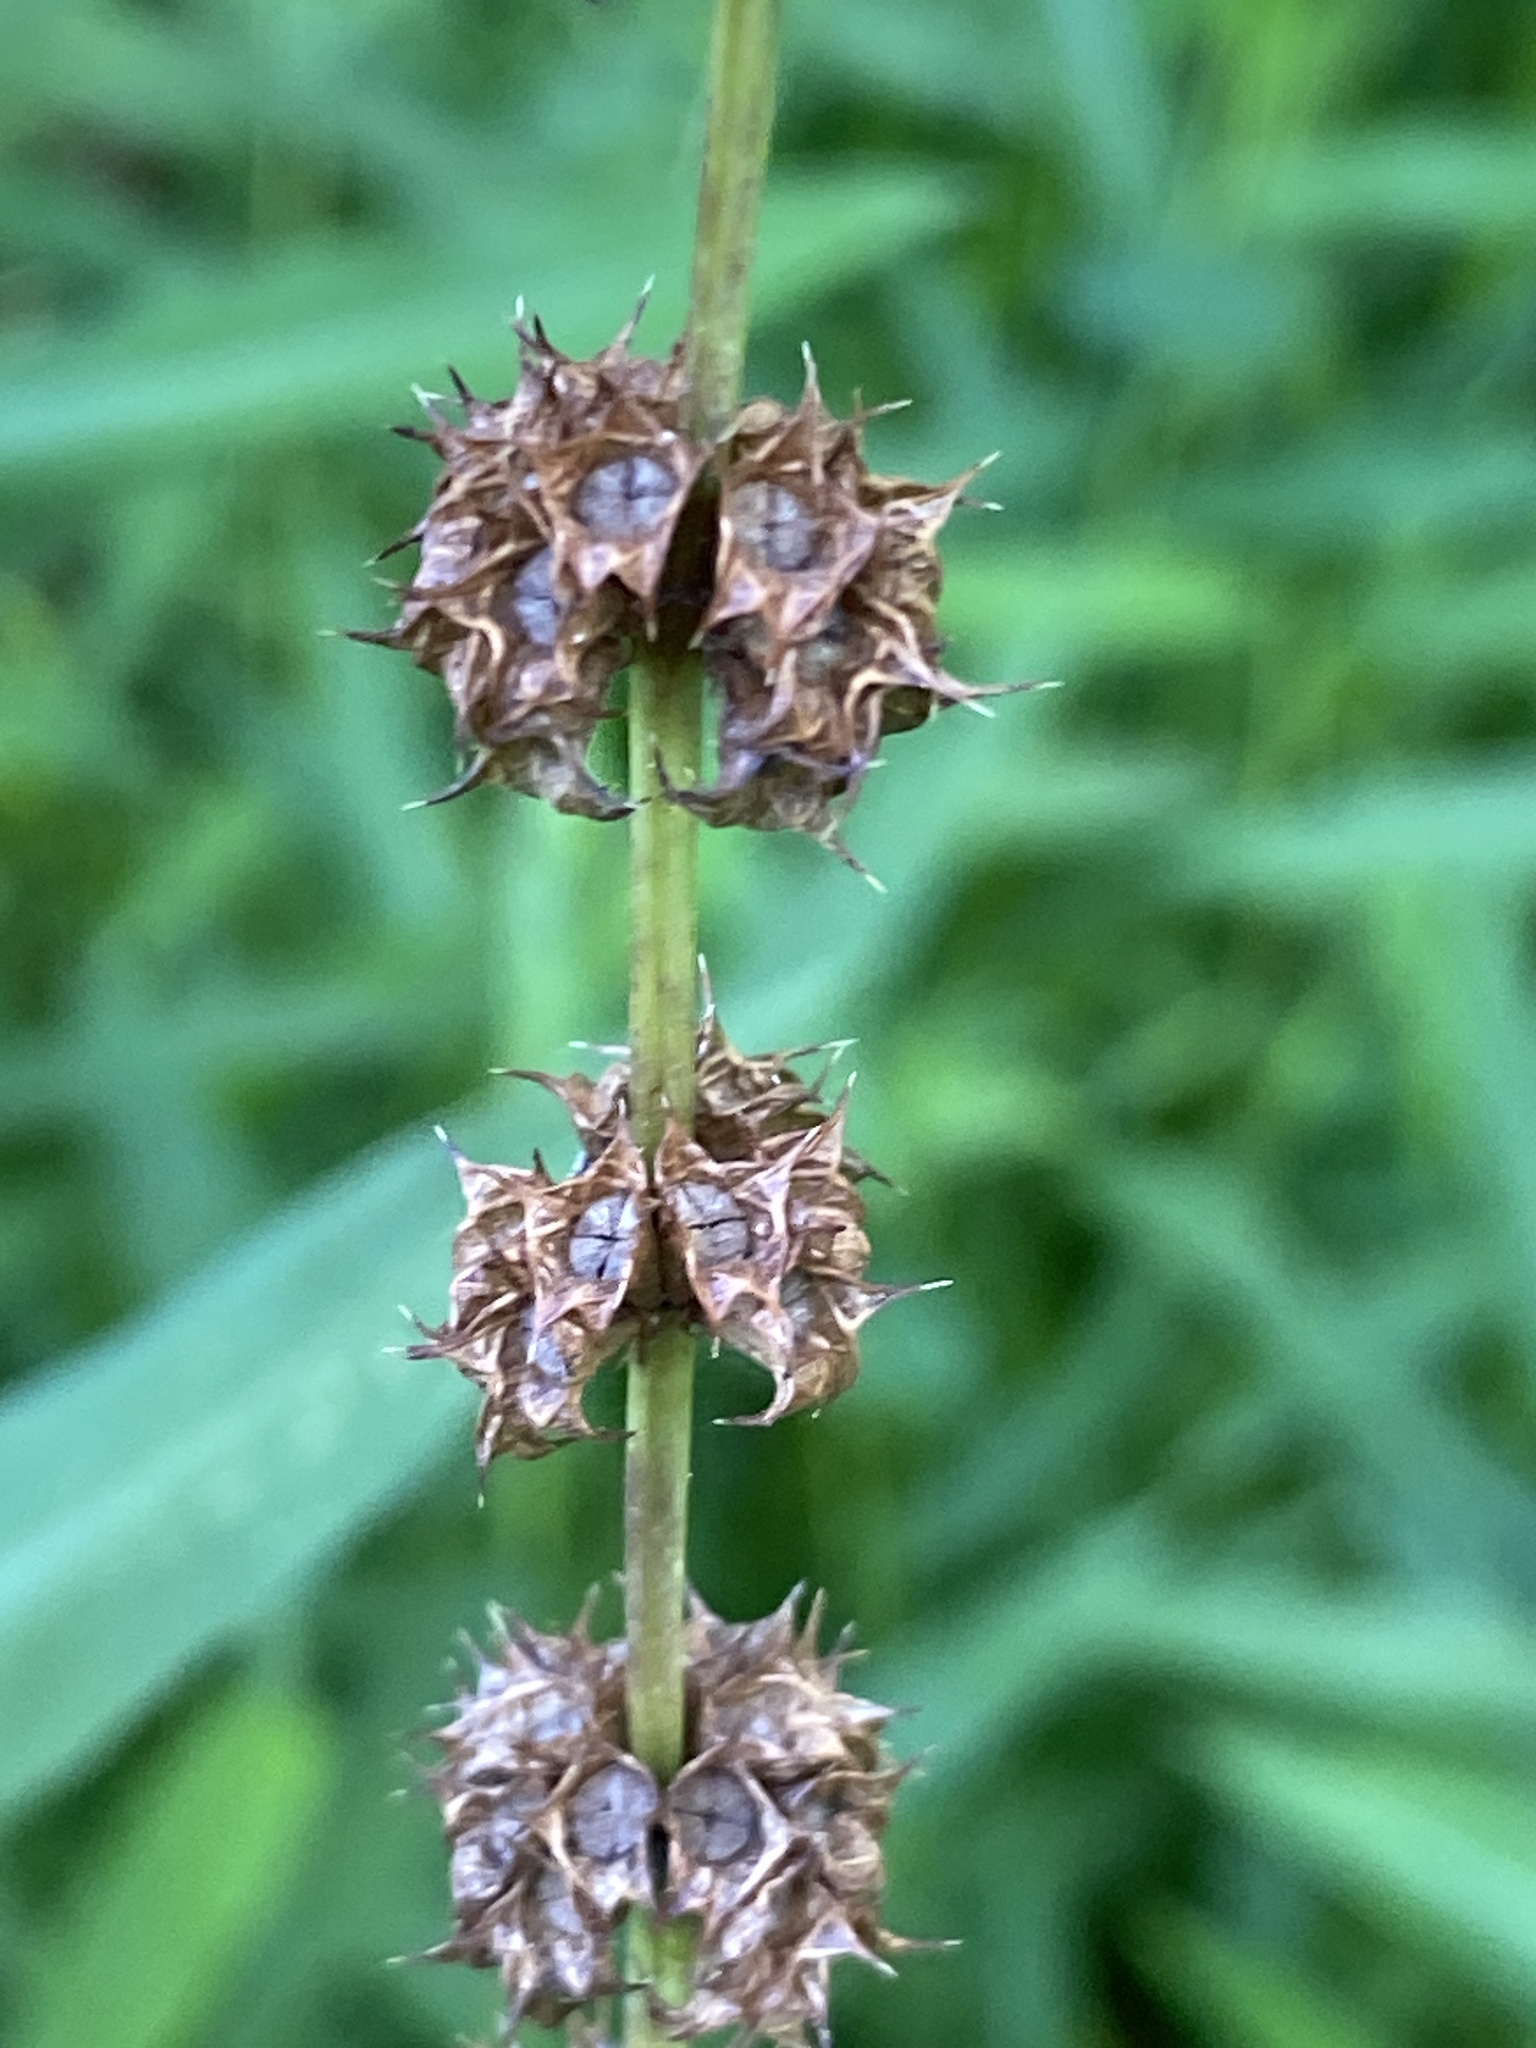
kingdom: Plantae
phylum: Tracheophyta
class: Magnoliopsida
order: Lamiales
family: Lamiaceae
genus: Leonurus
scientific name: Leonurus cardiaca
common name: Motherwort
